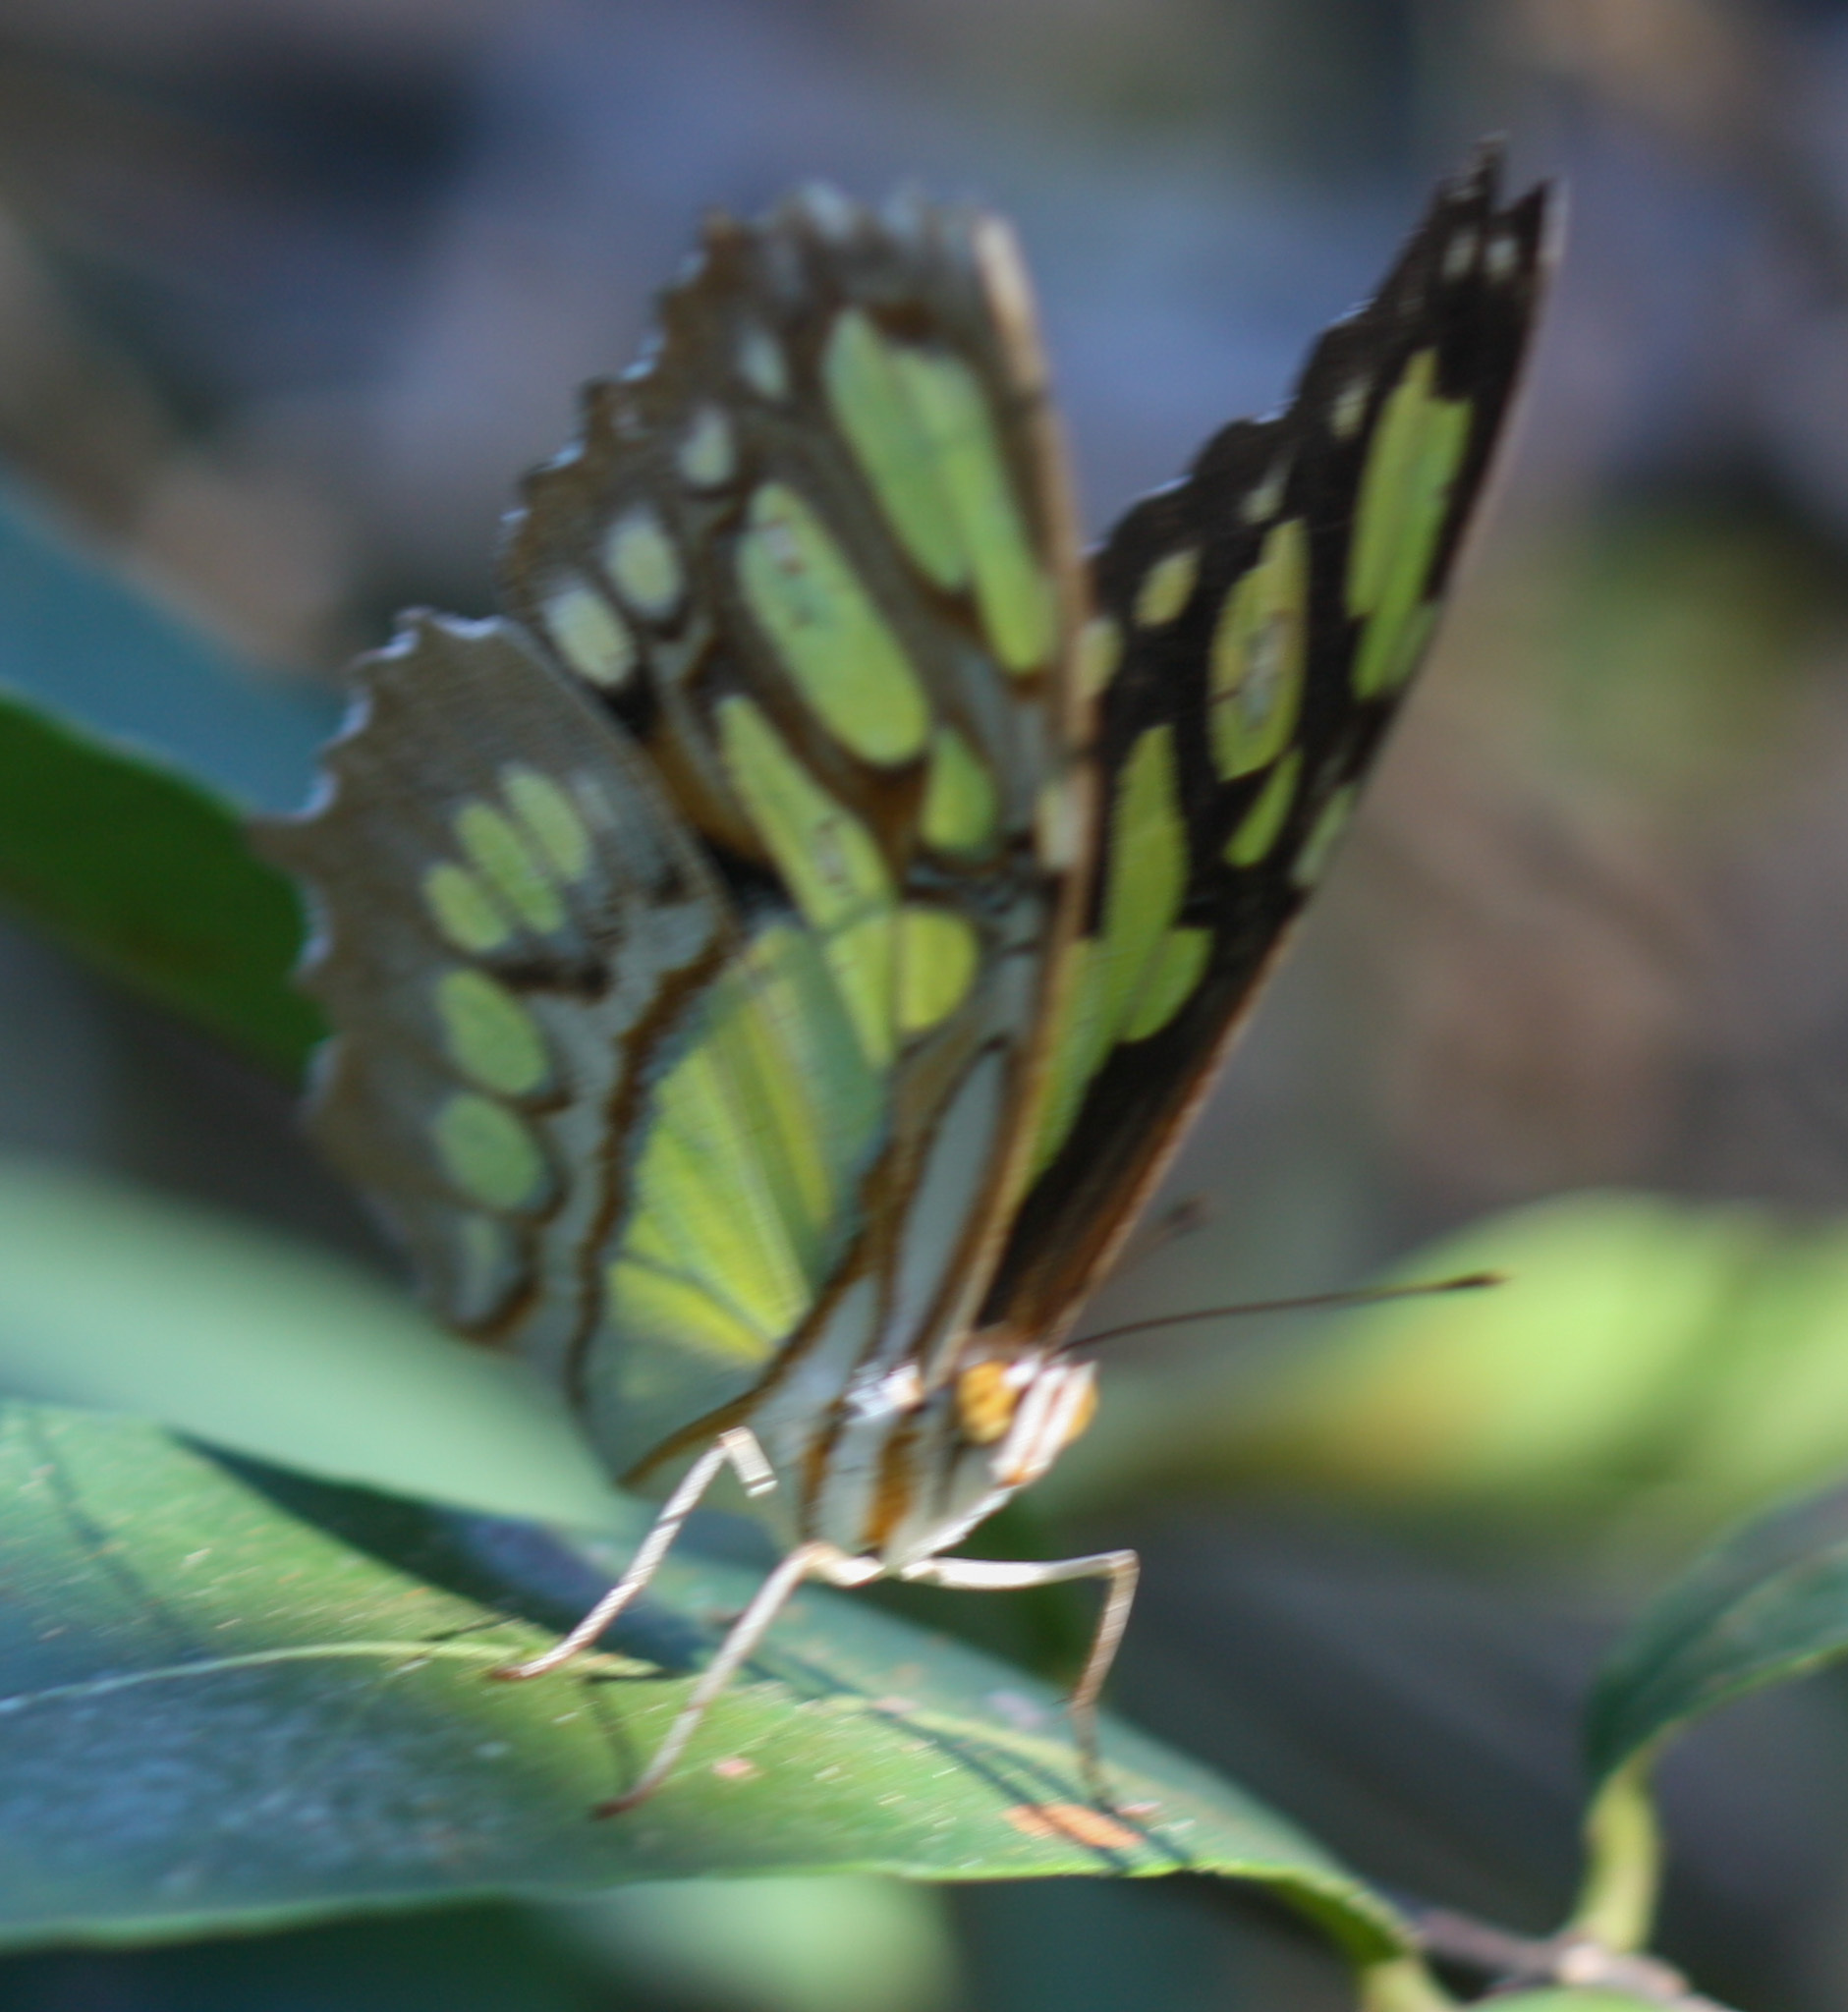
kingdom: Animalia
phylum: Arthropoda
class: Insecta
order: Lepidoptera
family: Nymphalidae
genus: Siproeta
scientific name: Siproeta stelenes
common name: Malachite
